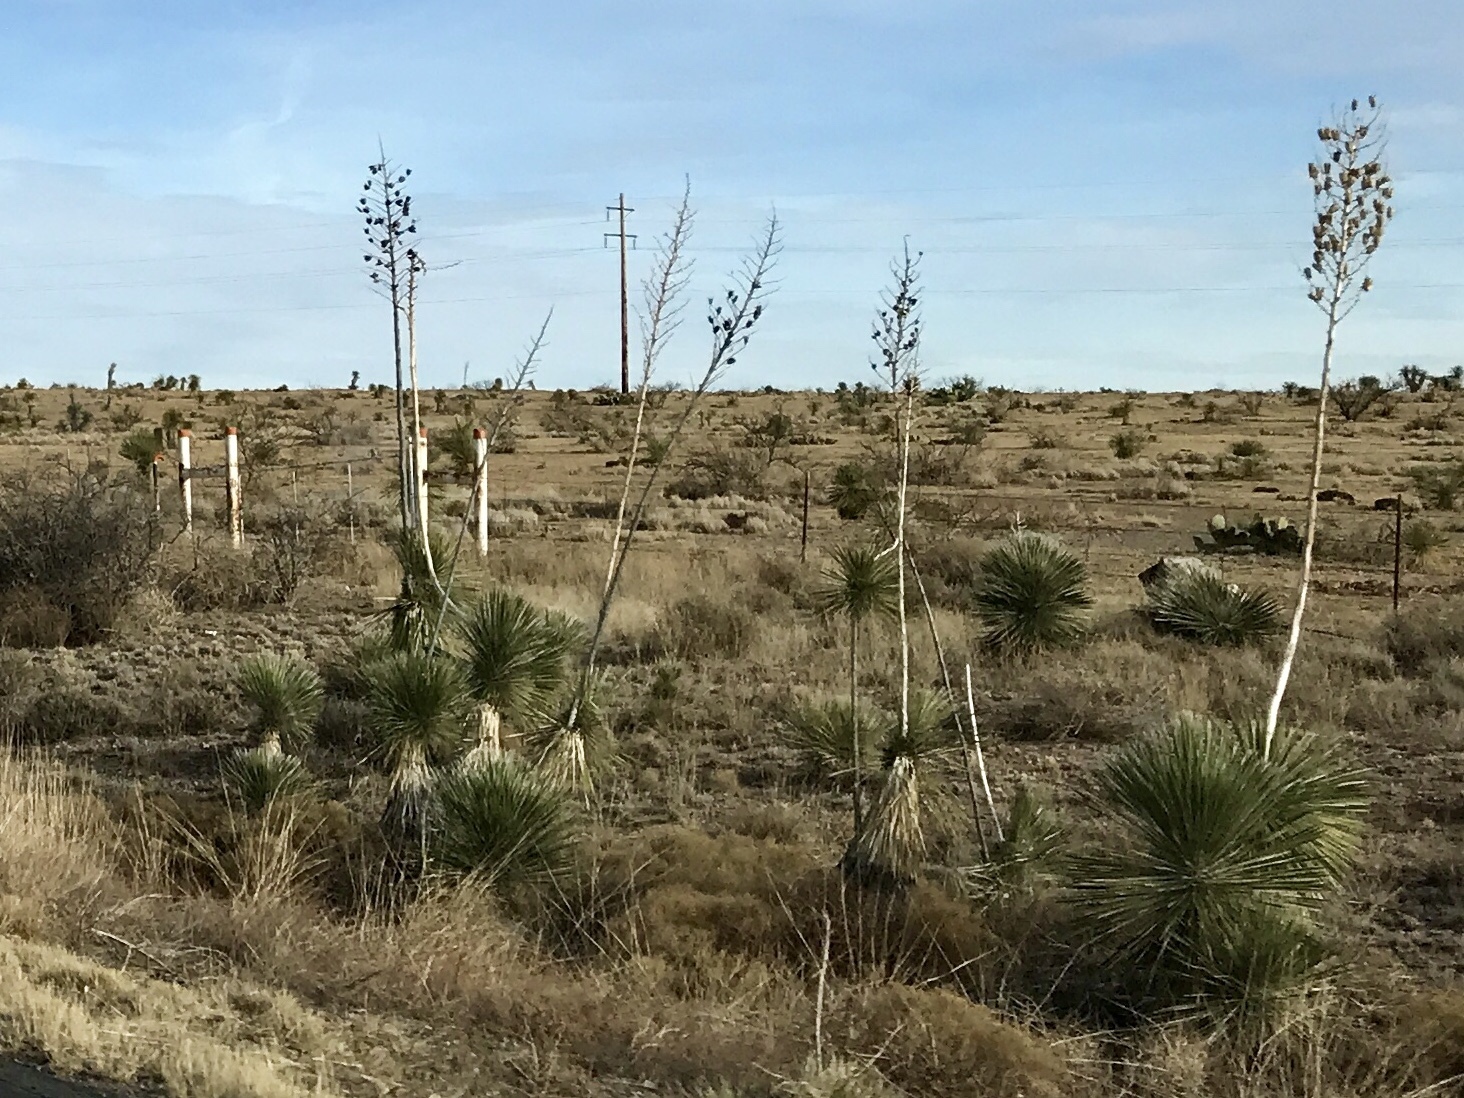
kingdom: Plantae
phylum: Tracheophyta
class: Liliopsida
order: Asparagales
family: Asparagaceae
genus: Yucca
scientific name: Yucca elata
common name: Palmella
